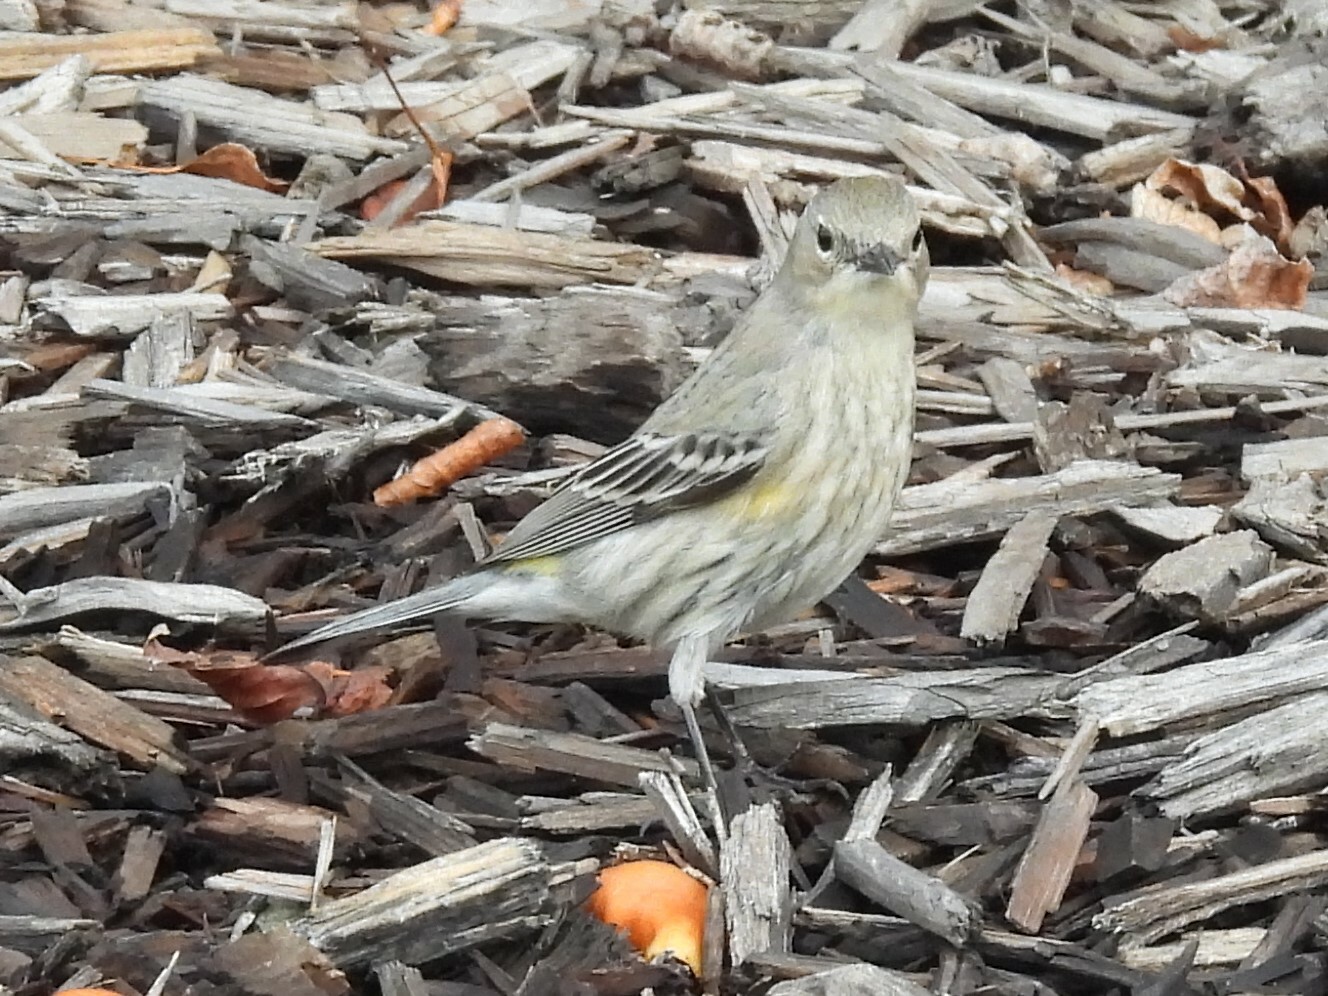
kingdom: Animalia
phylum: Chordata
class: Aves
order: Passeriformes
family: Parulidae
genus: Setophaga
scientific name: Setophaga coronata
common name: Myrtle warbler
